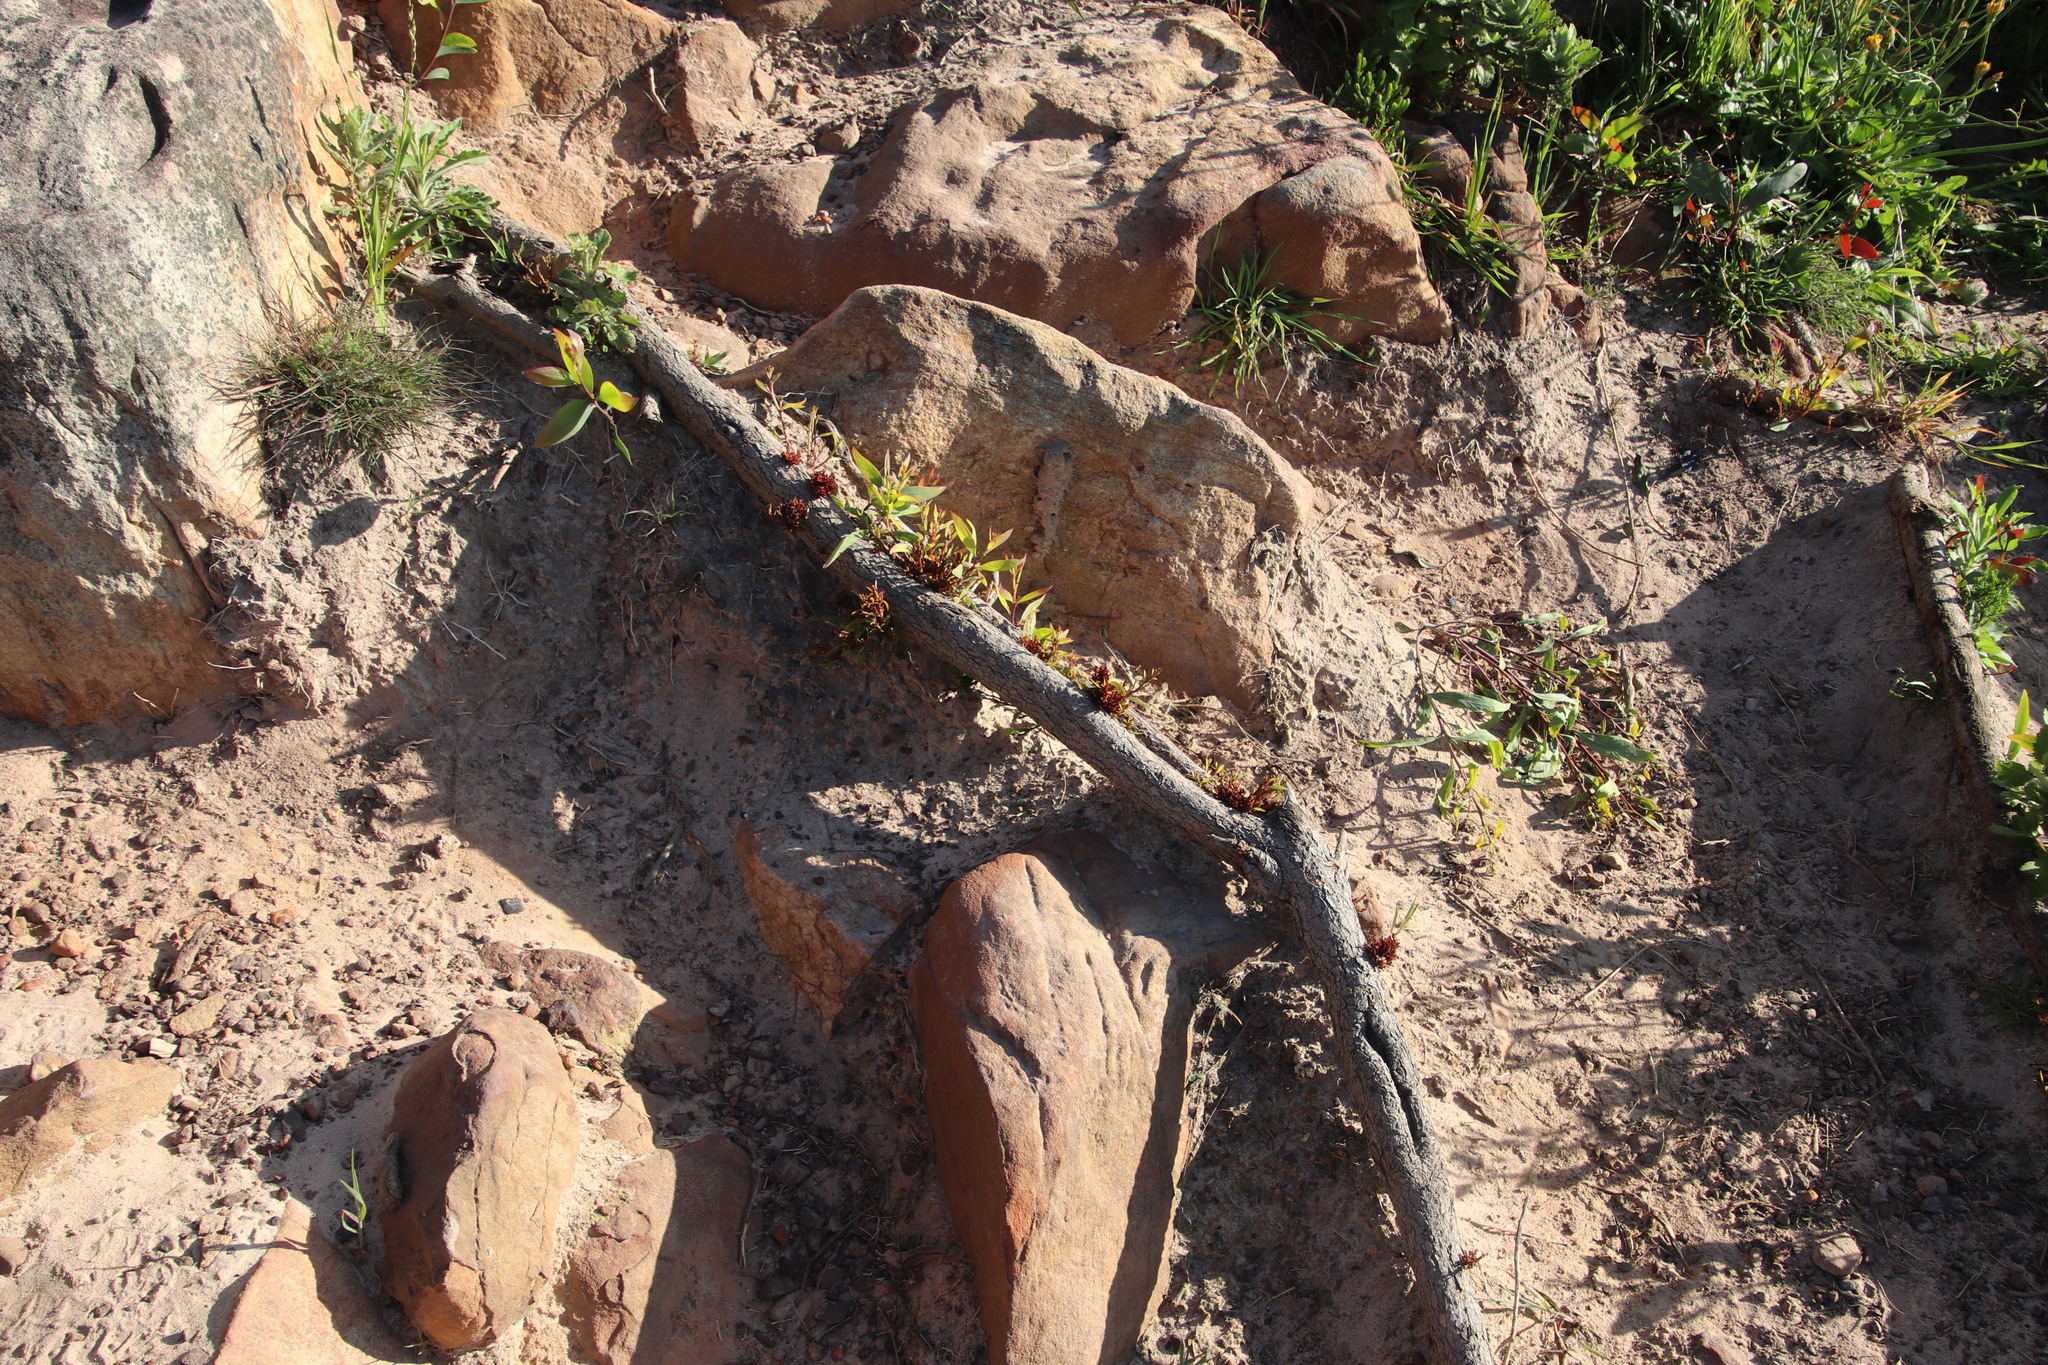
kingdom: Plantae
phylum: Tracheophyta
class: Magnoliopsida
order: Fabales
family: Fabaceae
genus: Acacia
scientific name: Acacia falciformis
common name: Tanning wattle
